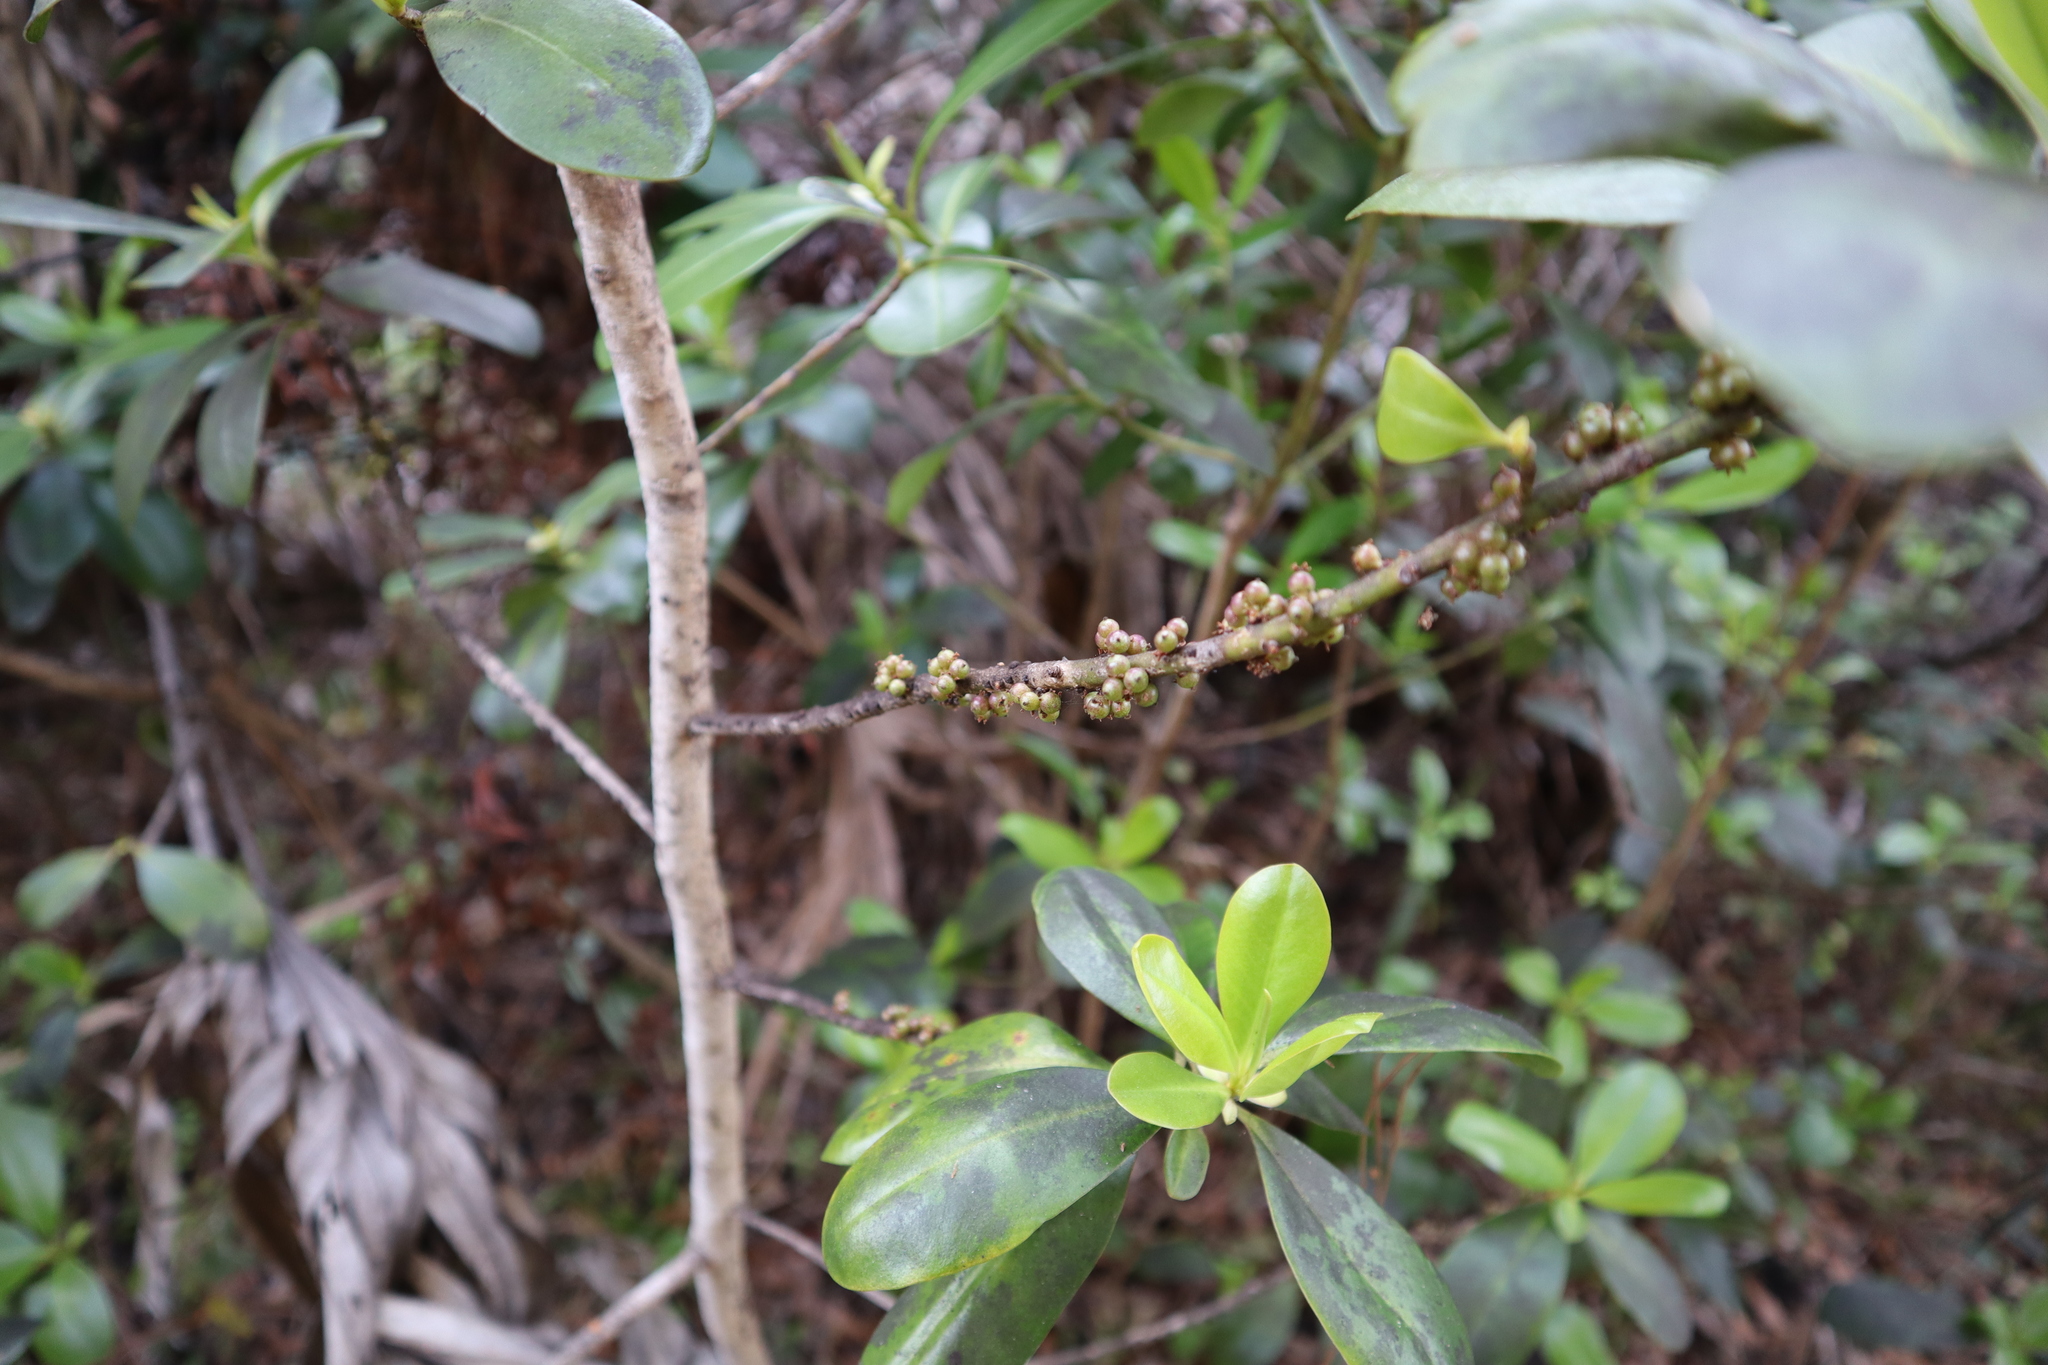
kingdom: Plantae
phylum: Tracheophyta
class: Magnoliopsida
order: Ericales
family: Primulaceae
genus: Myrsine
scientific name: Myrsine floridana
